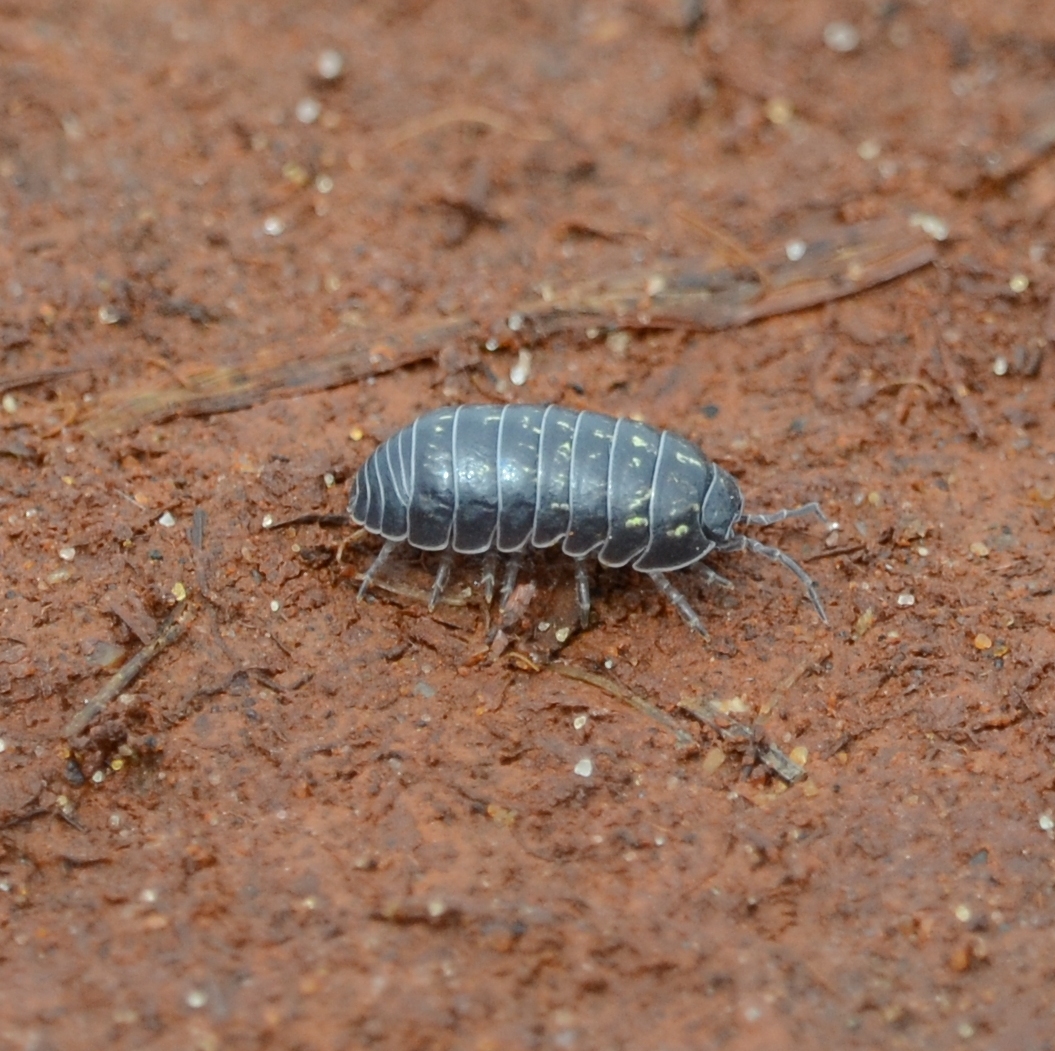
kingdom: Animalia
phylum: Arthropoda
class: Malacostraca
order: Isopoda
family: Armadillidiidae
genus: Armadillidium
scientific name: Armadillidium vulgare
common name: Common pill woodlouse
